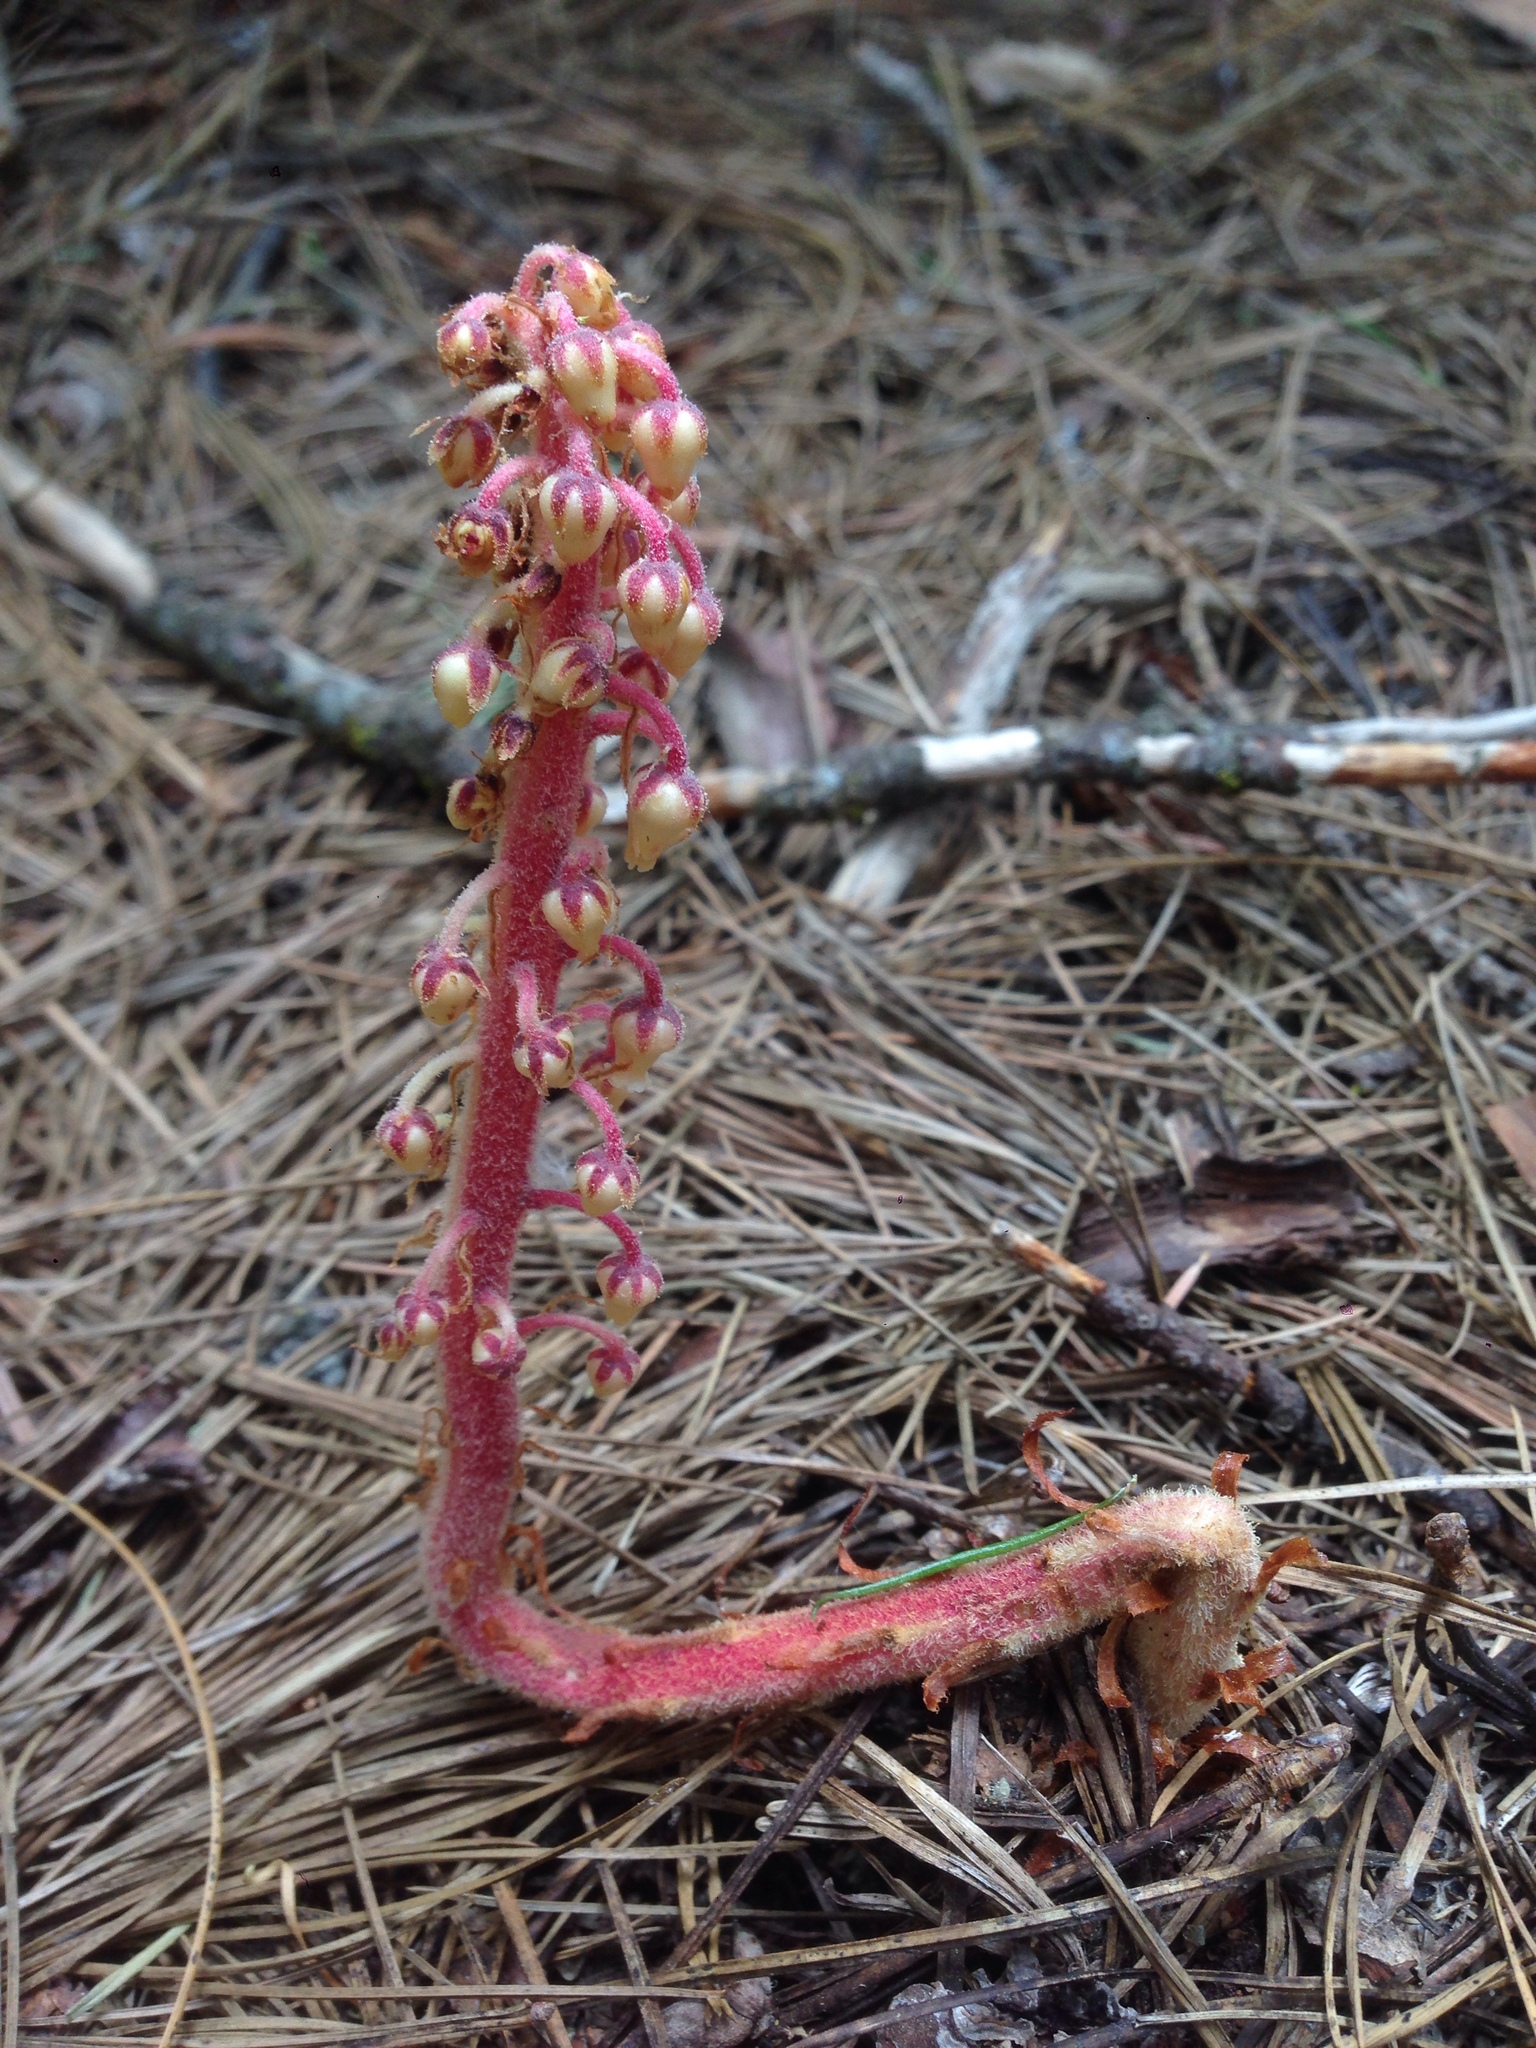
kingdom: Plantae
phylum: Tracheophyta
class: Magnoliopsida
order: Ericales
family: Ericaceae
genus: Pterospora
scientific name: Pterospora andromedea
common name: Giant bird's-nest
